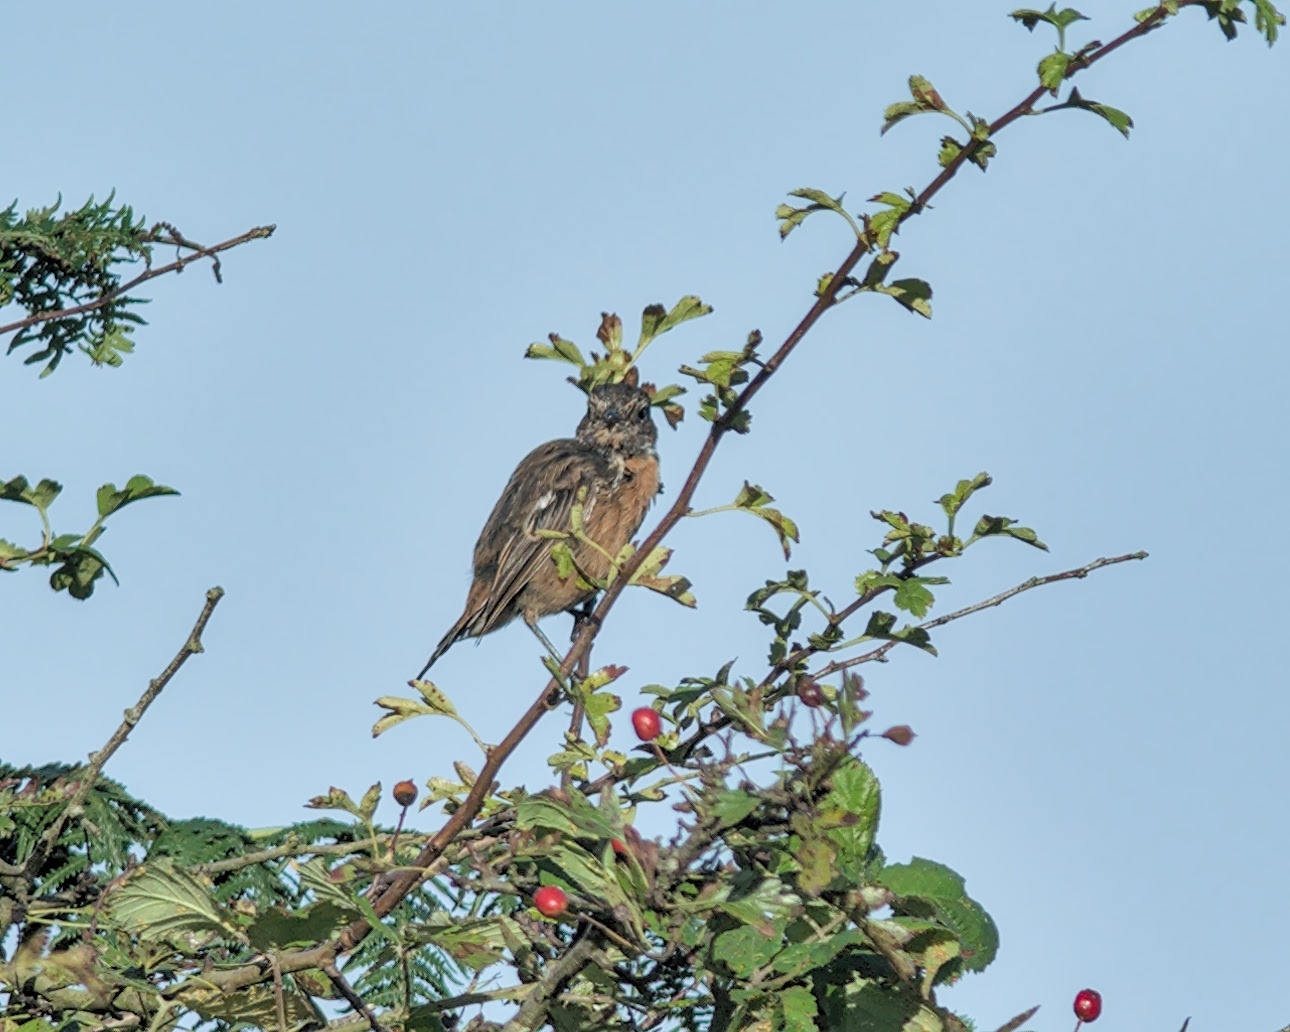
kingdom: Animalia
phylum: Chordata
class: Aves
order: Passeriformes
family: Muscicapidae
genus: Saxicola
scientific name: Saxicola rubicola
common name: European stonechat
